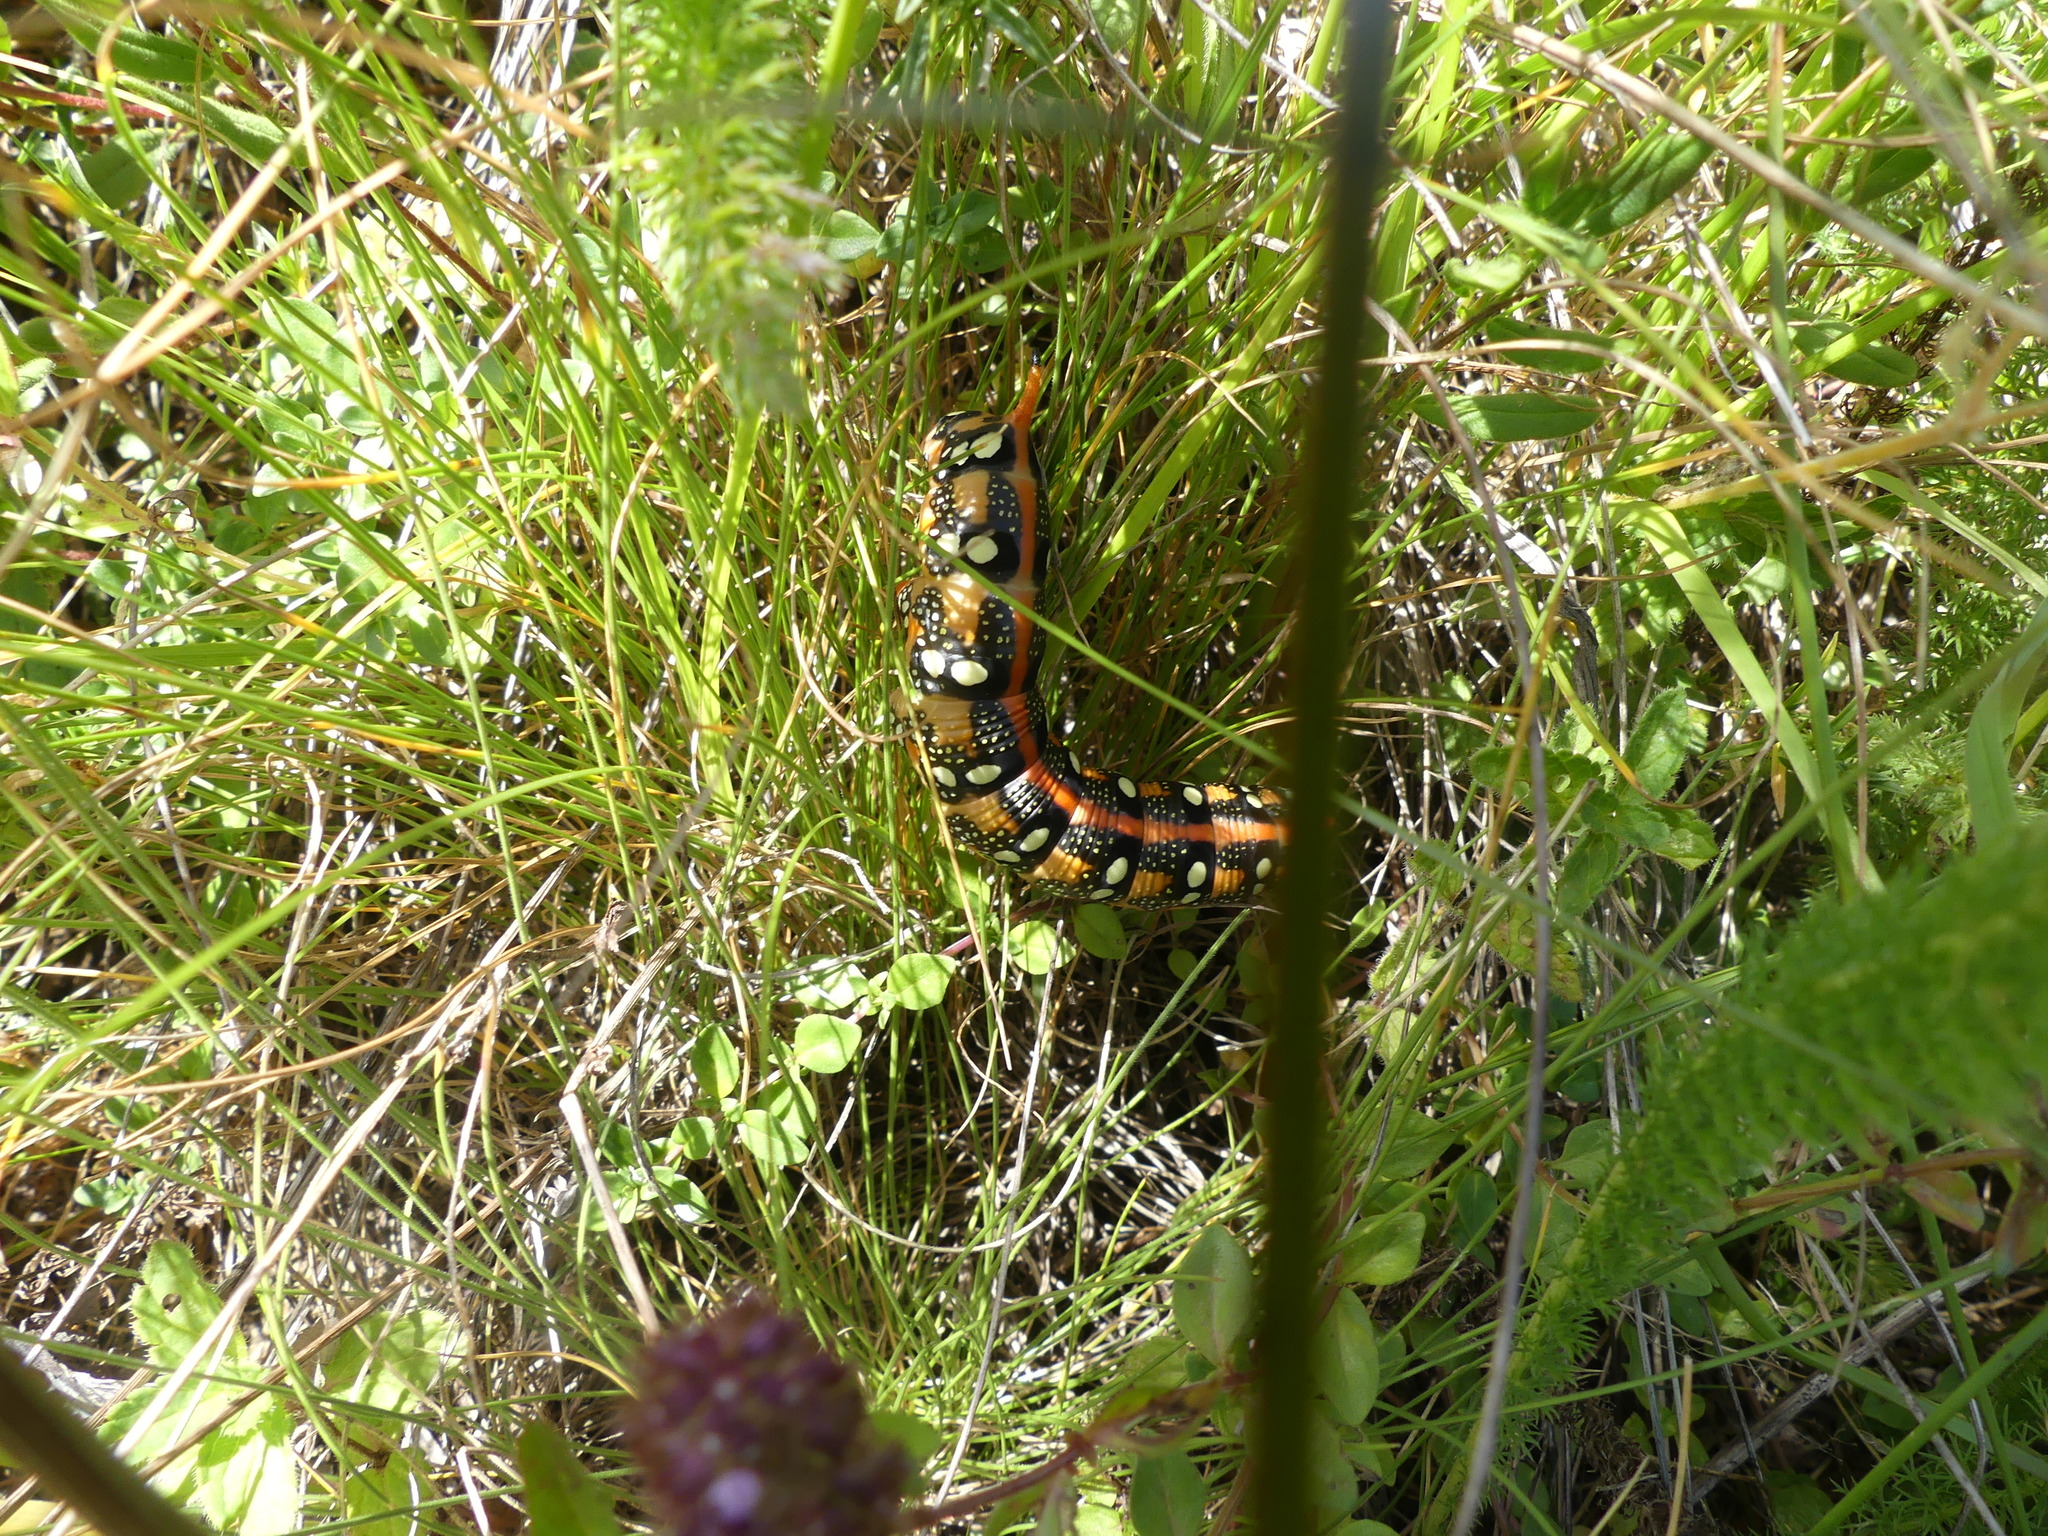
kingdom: Animalia
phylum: Arthropoda
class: Insecta
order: Lepidoptera
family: Sphingidae
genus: Hyles
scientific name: Hyles euphorbiae
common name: Spurge hawk-moth
